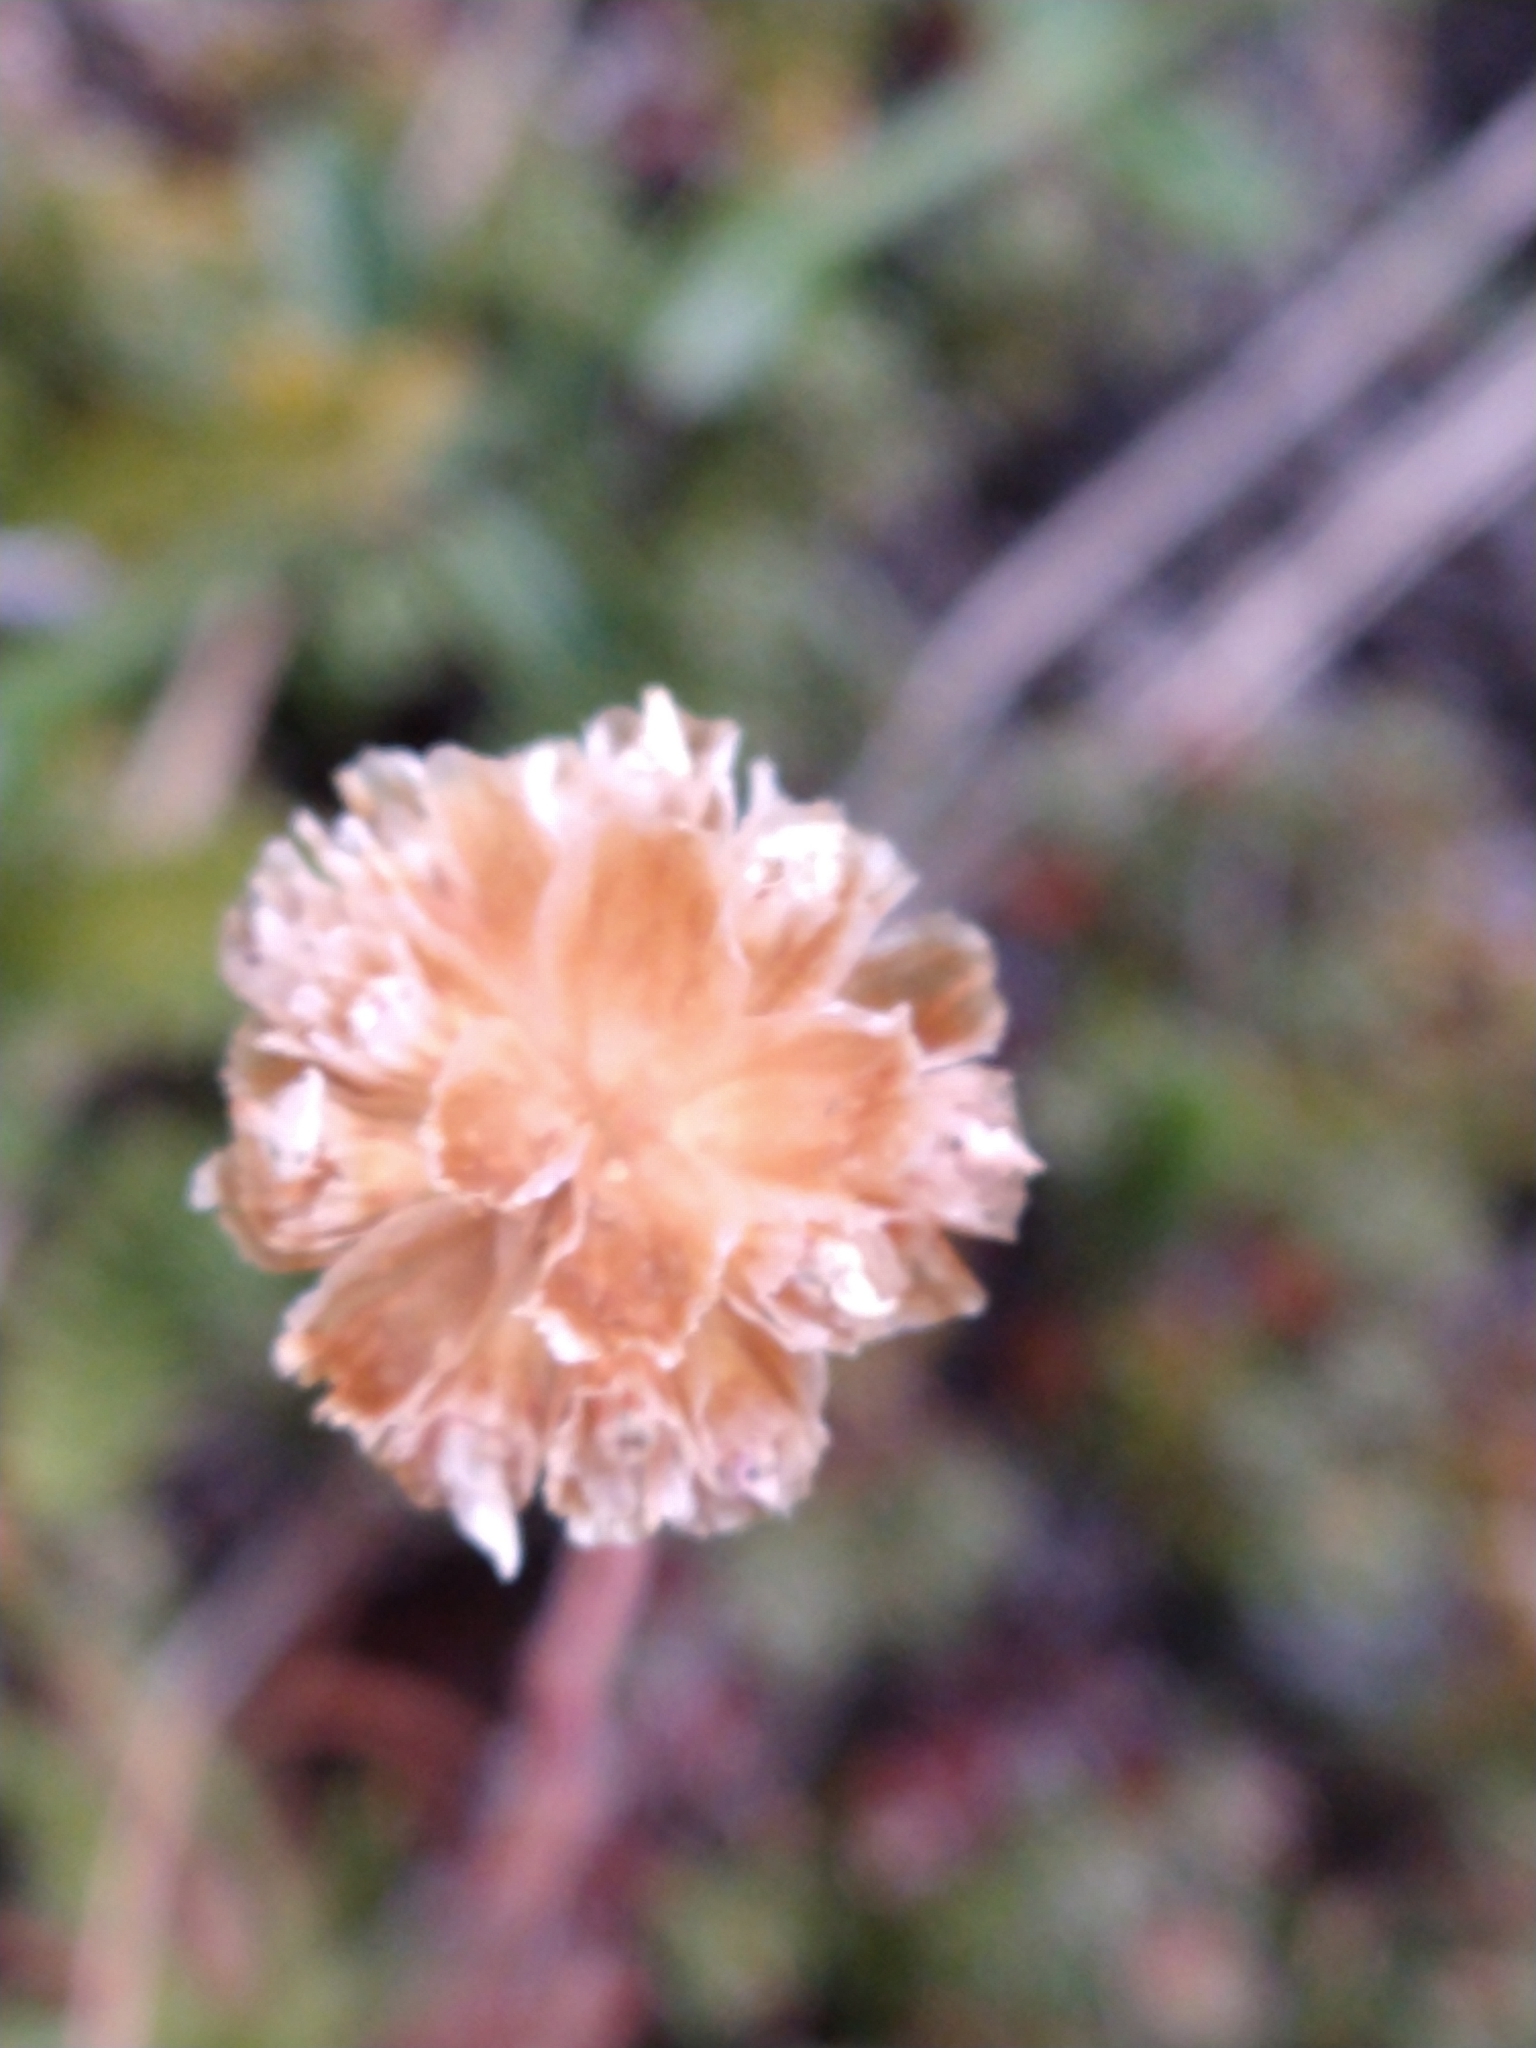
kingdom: Plantae
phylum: Tracheophyta
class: Magnoliopsida
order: Caryophyllales
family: Plumbaginaceae
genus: Armeria
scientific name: Armeria curvifolia
